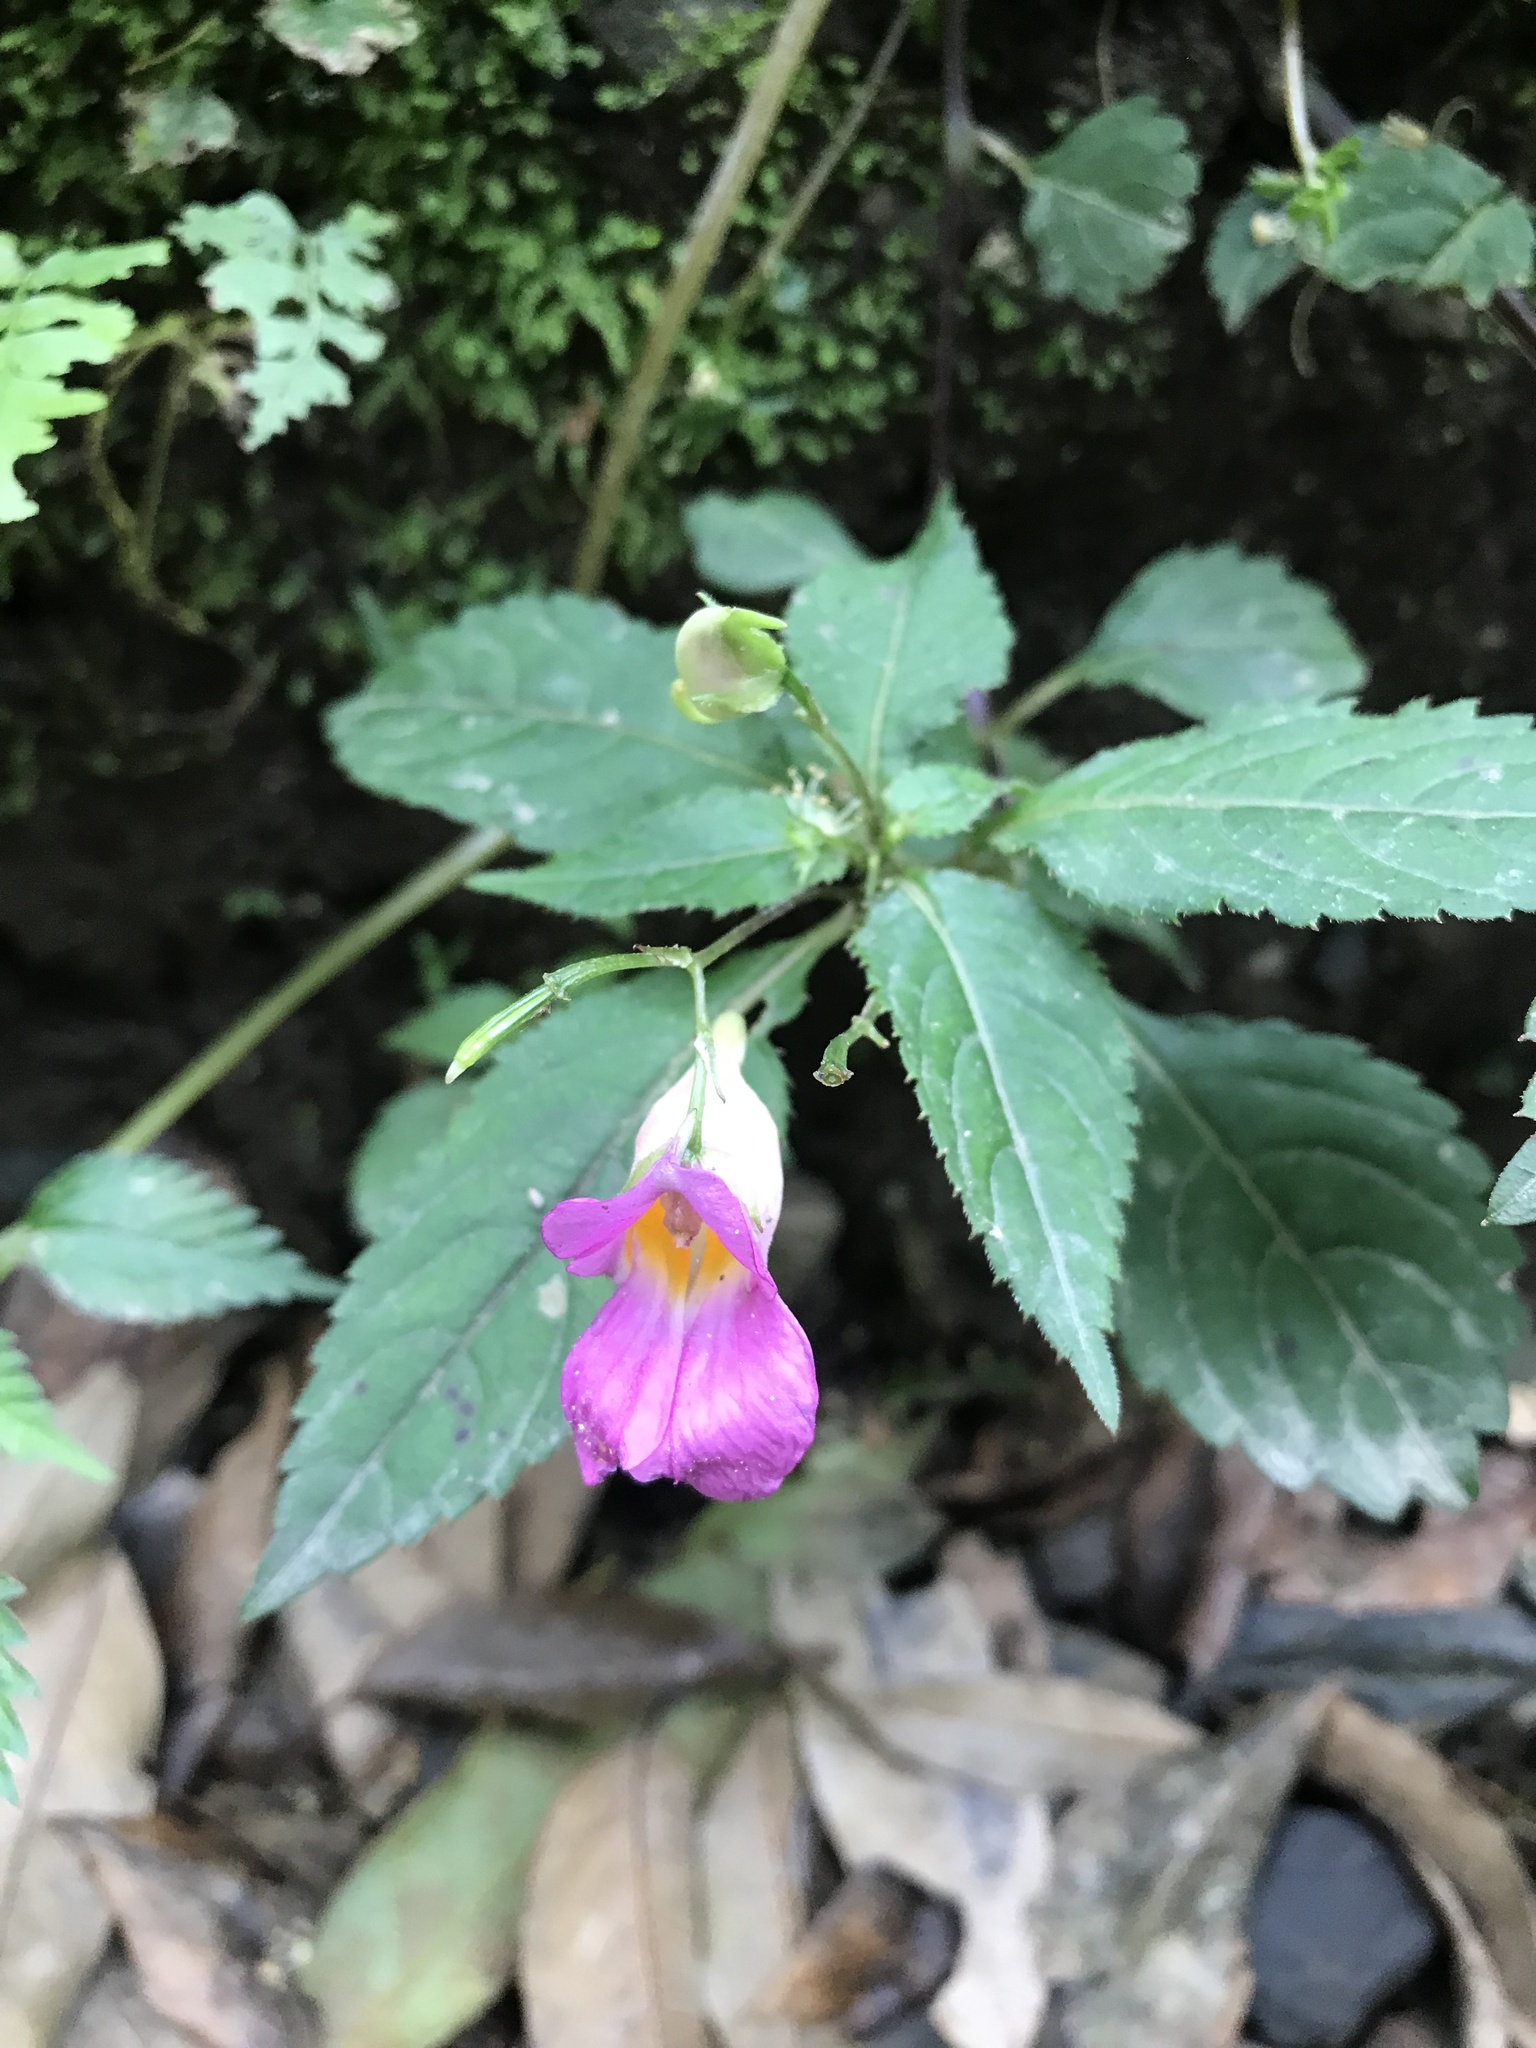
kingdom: Plantae
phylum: Tracheophyta
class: Magnoliopsida
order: Ericales
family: Balsaminaceae
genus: Impatiens
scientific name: Impatiens uniflora
